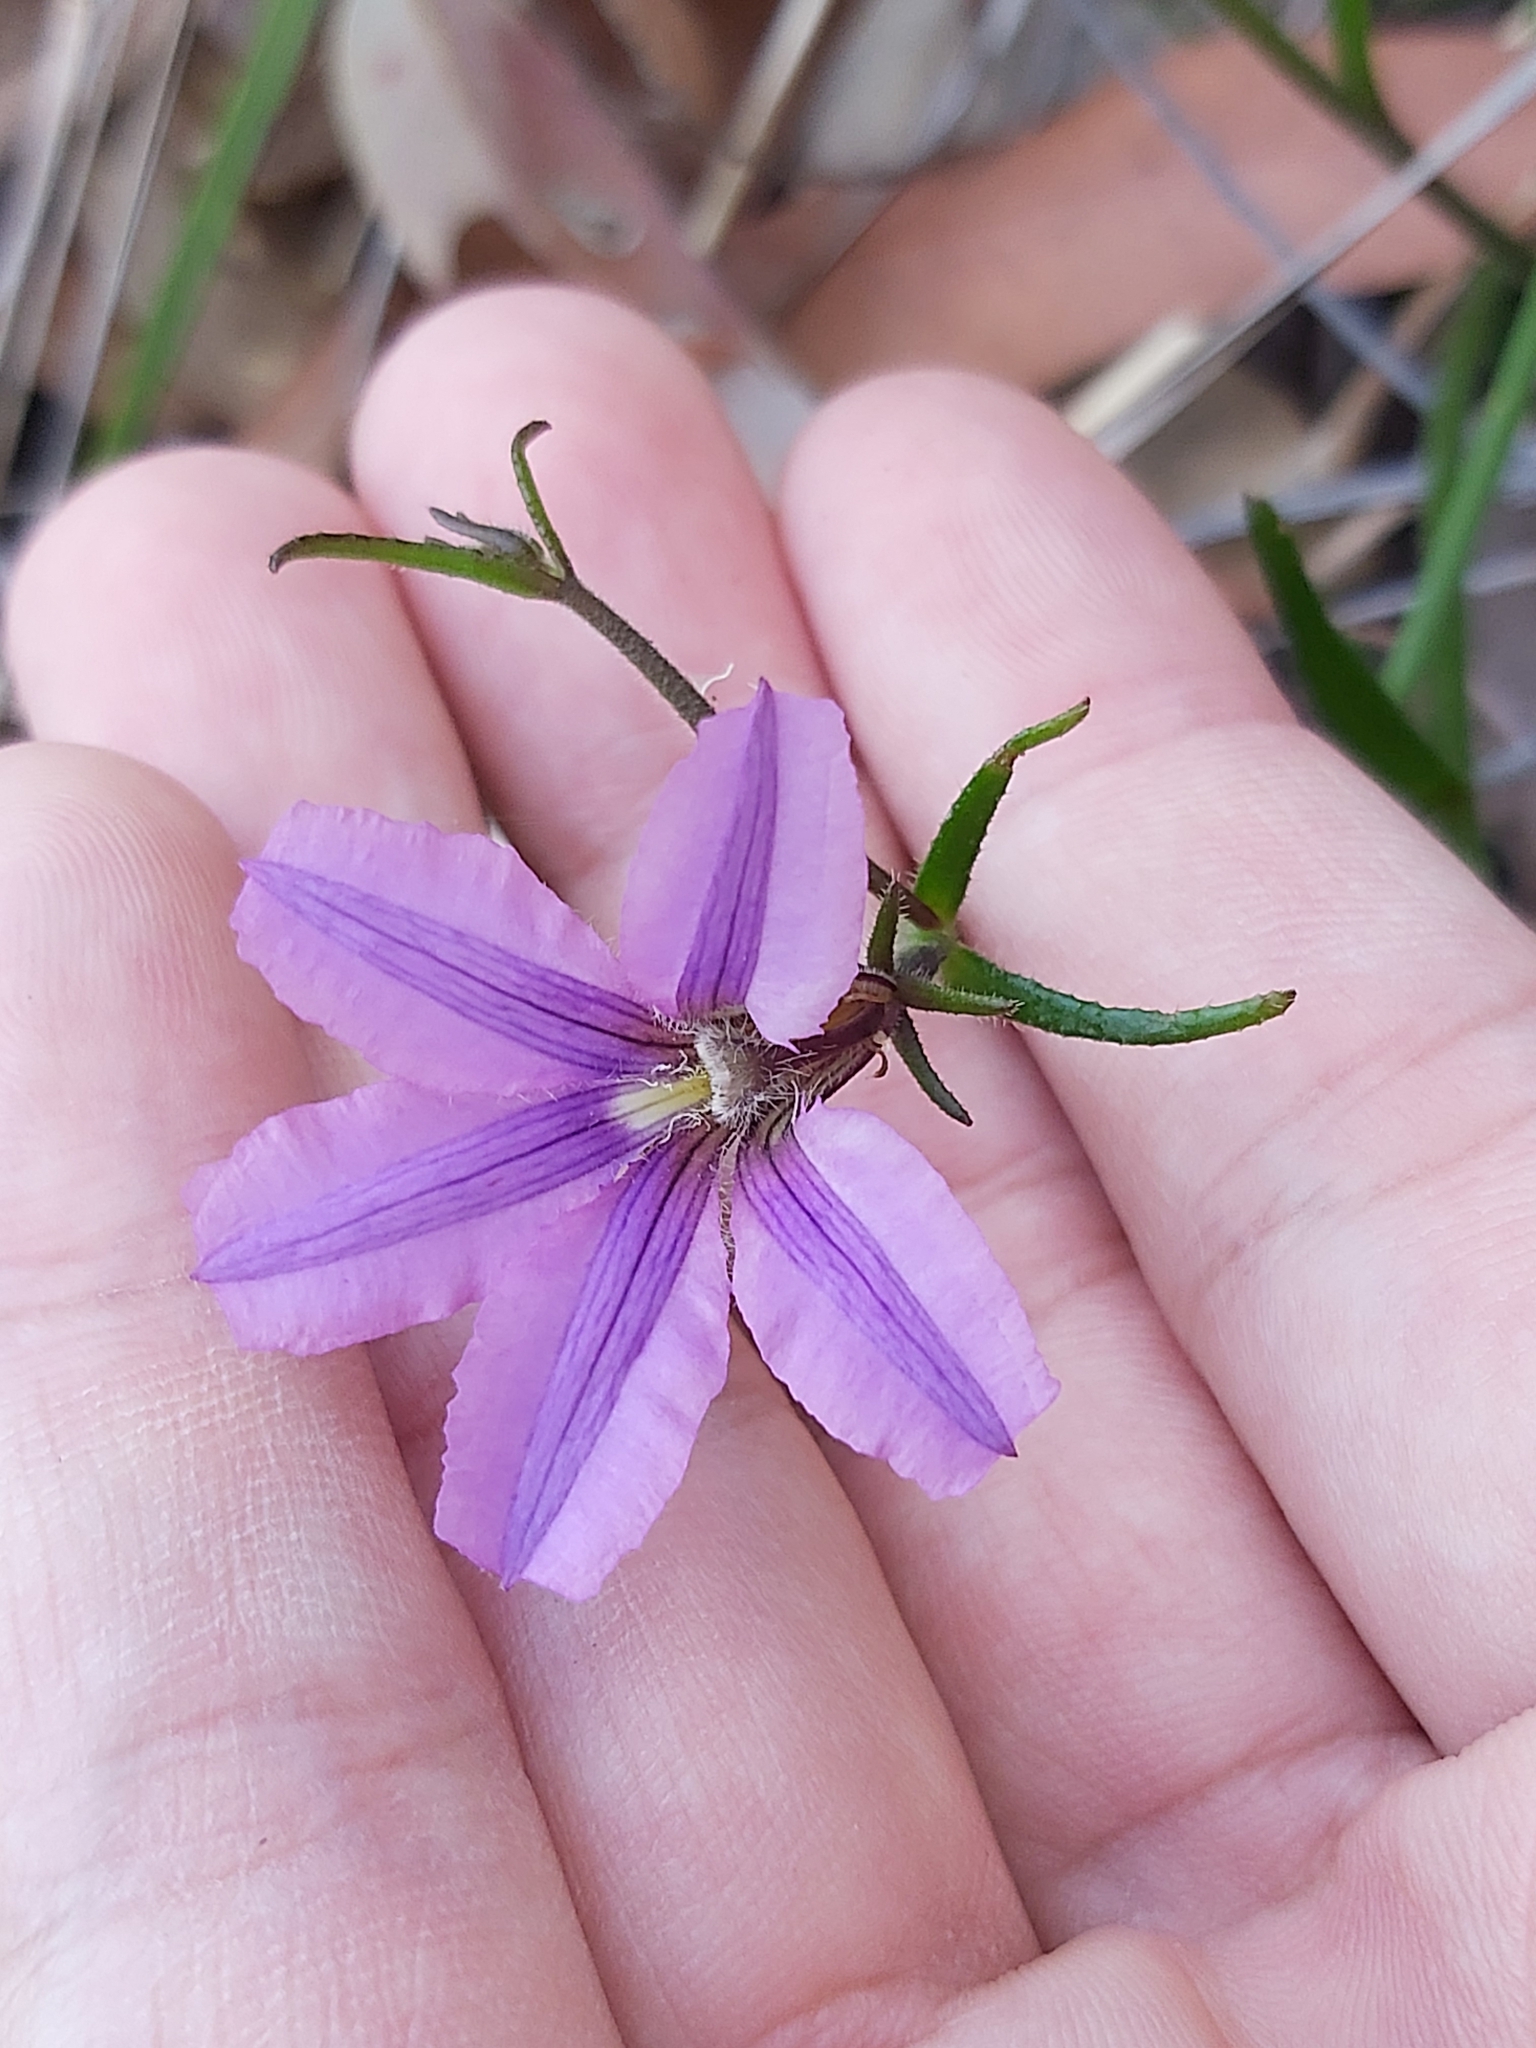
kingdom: Plantae
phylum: Tracheophyta
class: Magnoliopsida
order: Asterales
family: Goodeniaceae
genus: Scaevola
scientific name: Scaevola ramosissima
